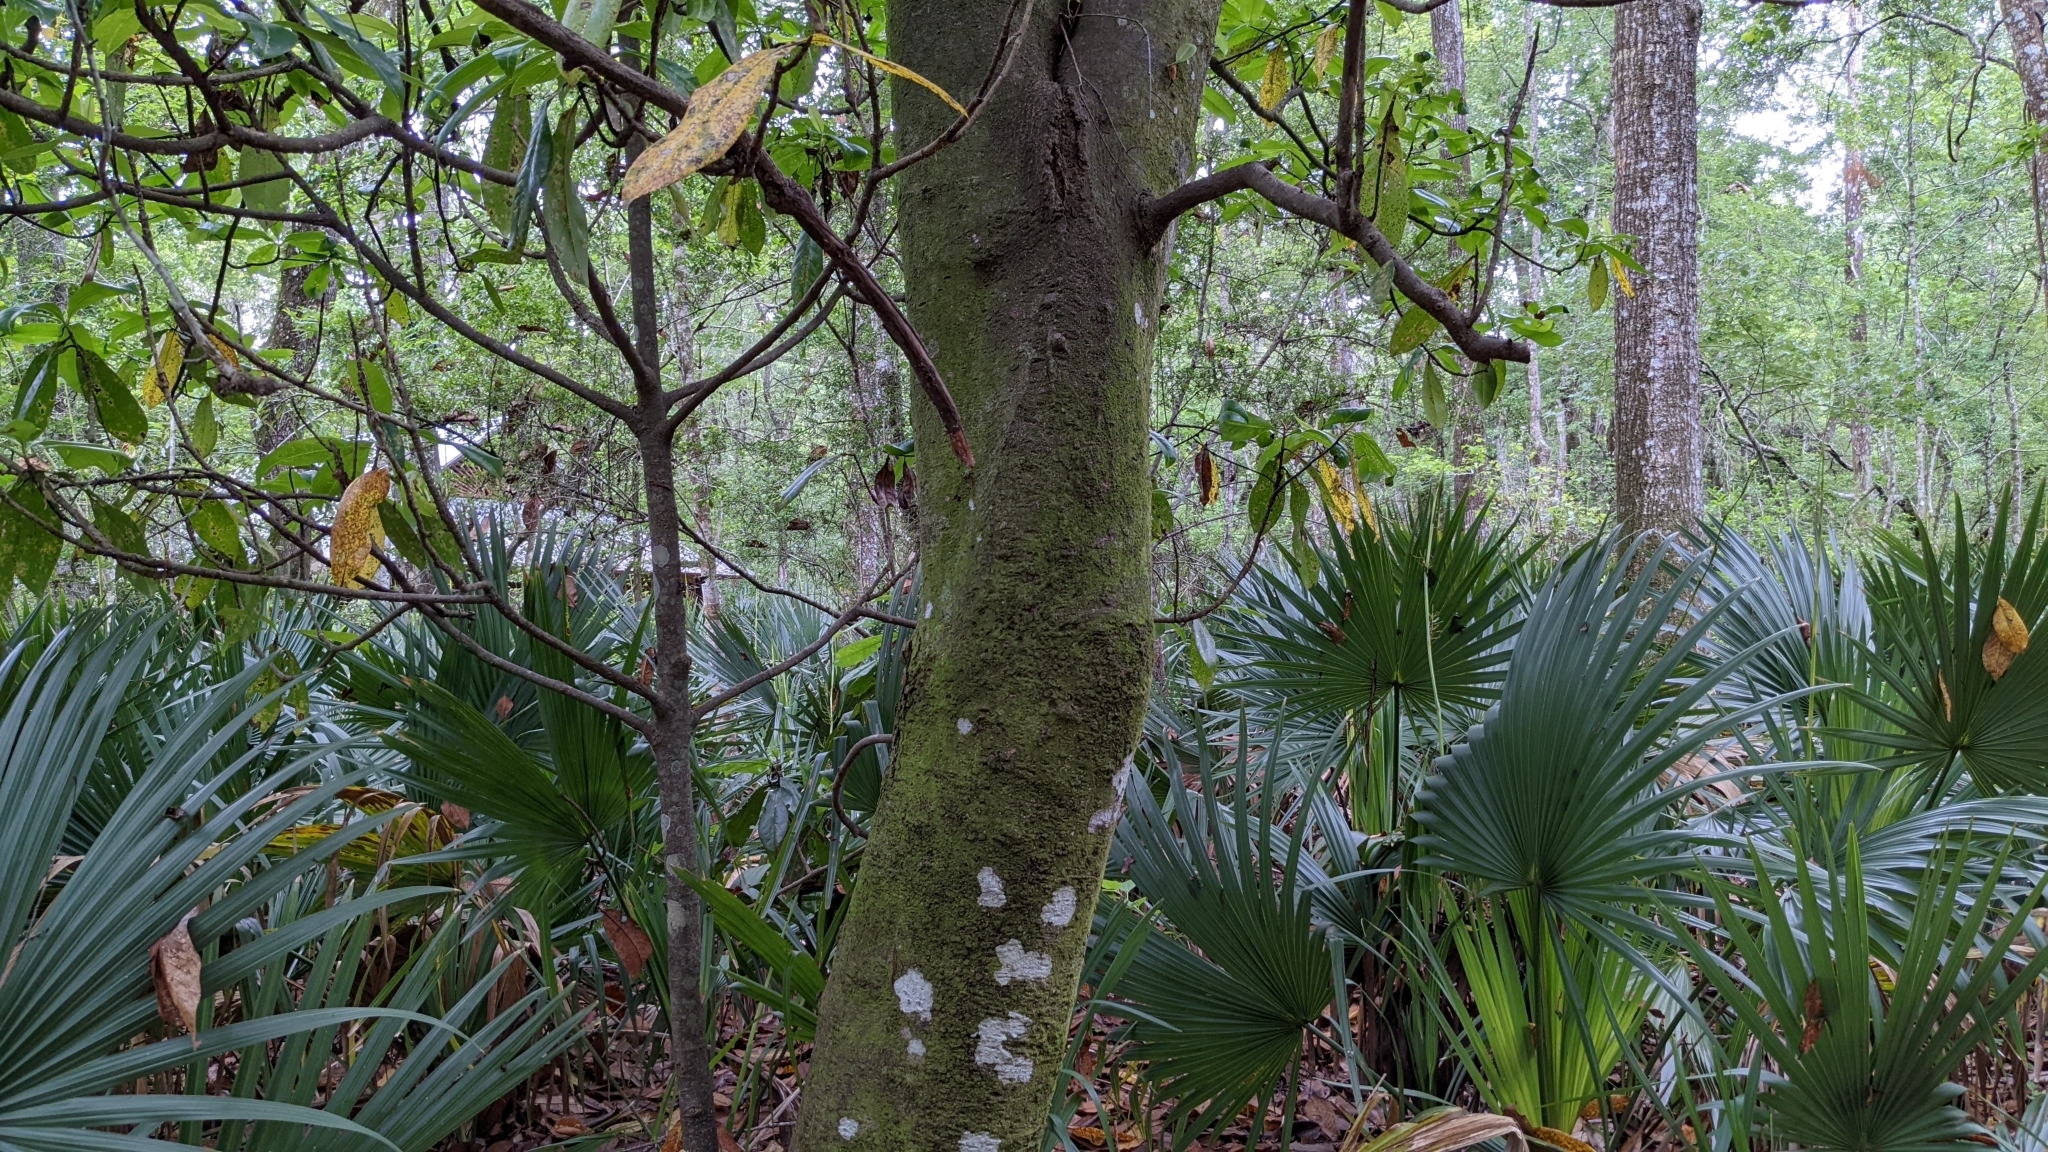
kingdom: Plantae
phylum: Tracheophyta
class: Magnoliopsida
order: Magnoliales
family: Magnoliaceae
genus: Magnolia
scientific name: Magnolia grandiflora
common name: Southern magnolia
